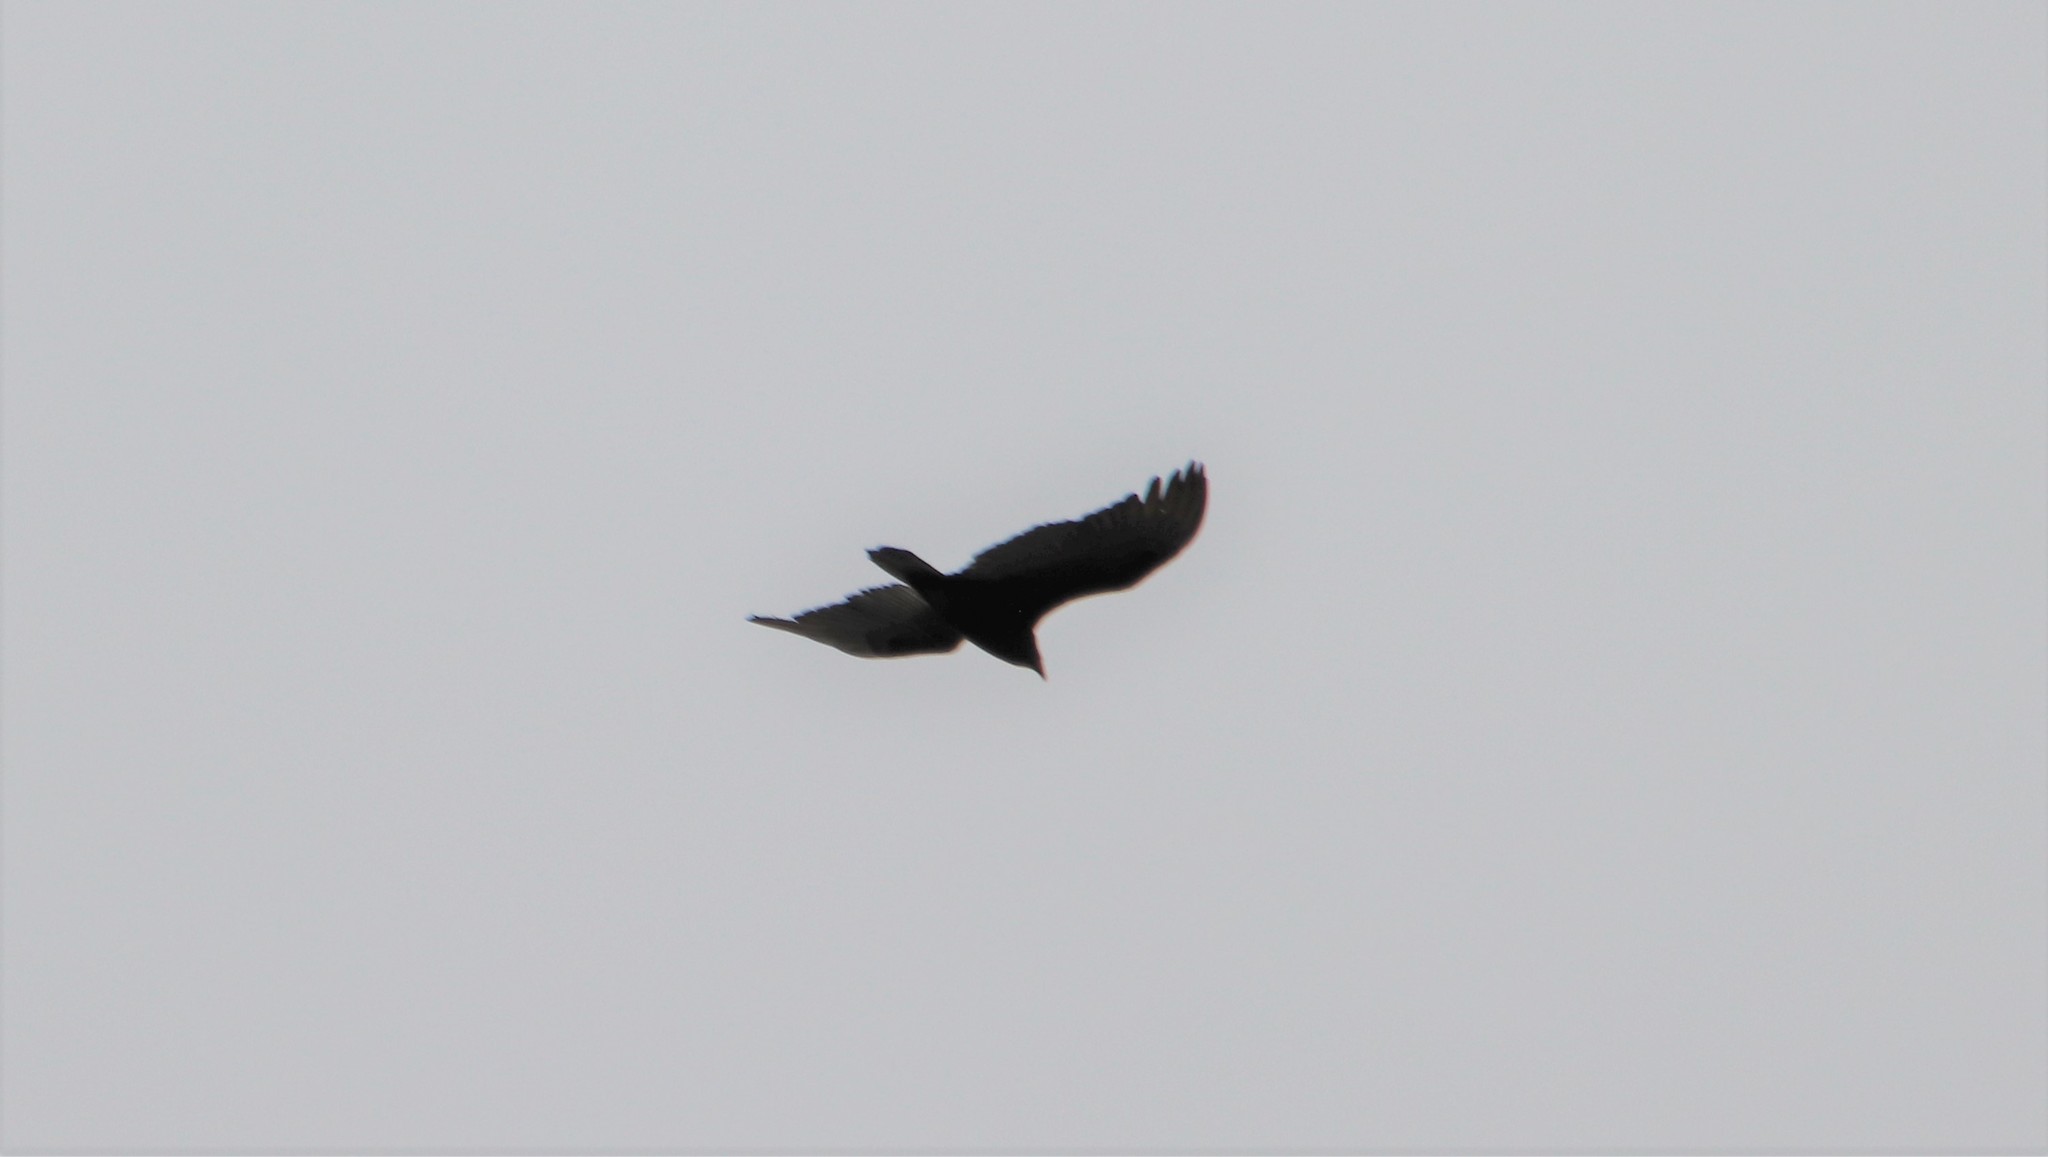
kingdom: Animalia
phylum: Chordata
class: Aves
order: Accipitriformes
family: Cathartidae
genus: Cathartes
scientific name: Cathartes aura
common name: Turkey vulture
